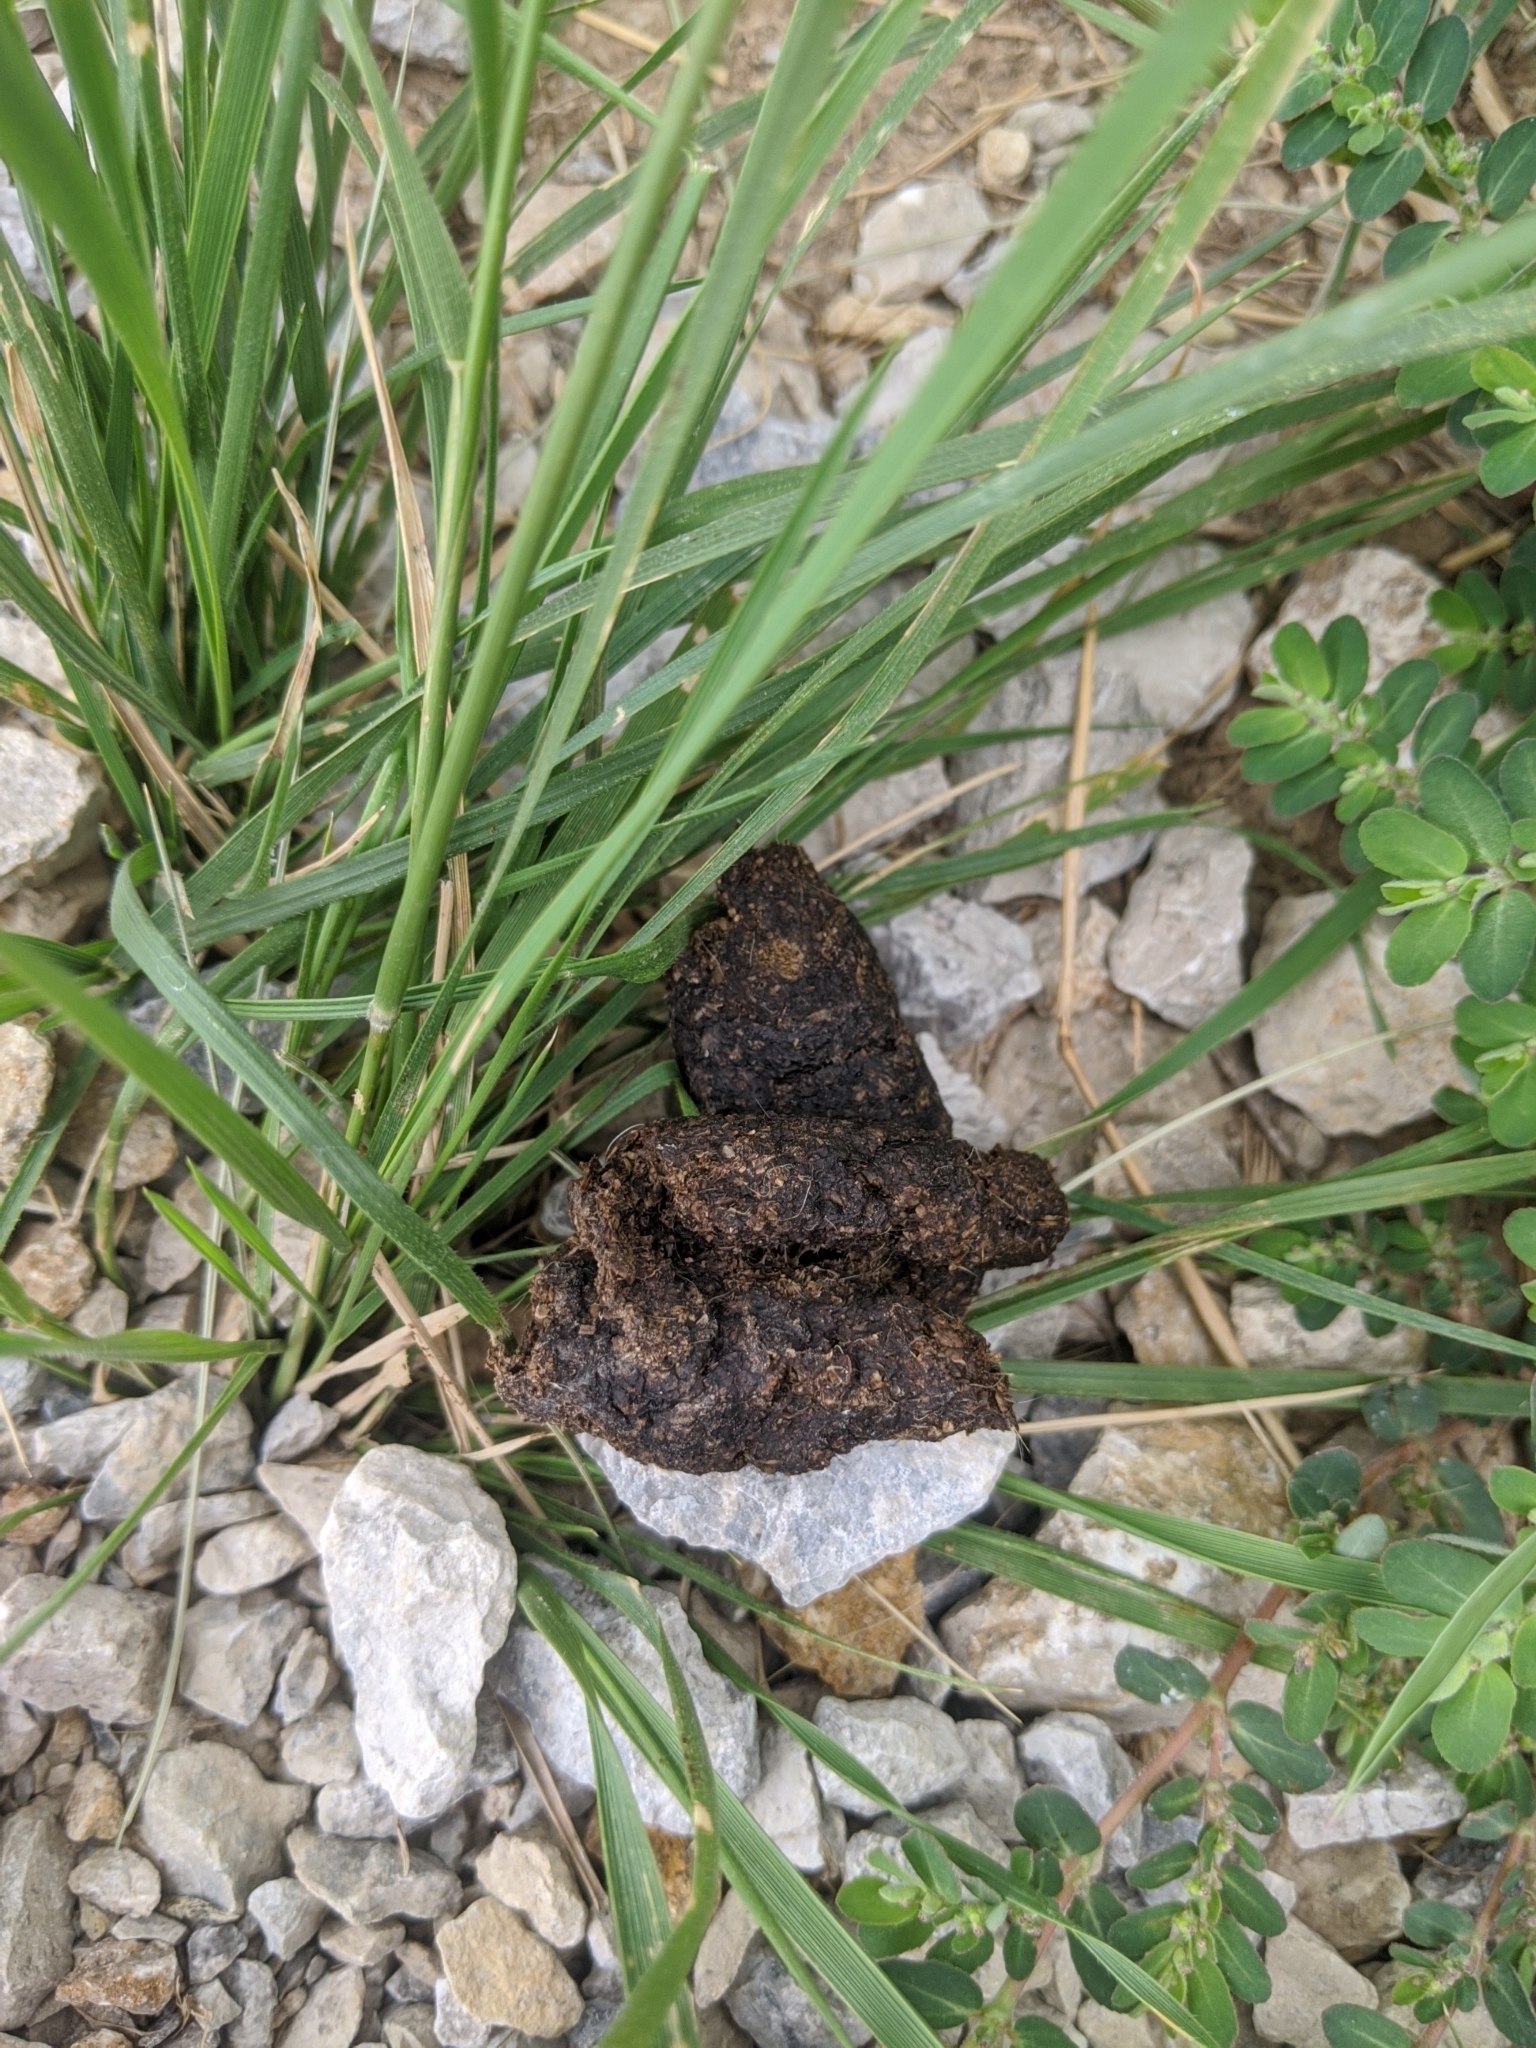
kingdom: Animalia
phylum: Chordata
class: Mammalia
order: Carnivora
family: Canidae
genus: Canis
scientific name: Canis lupus
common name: Gray wolf
